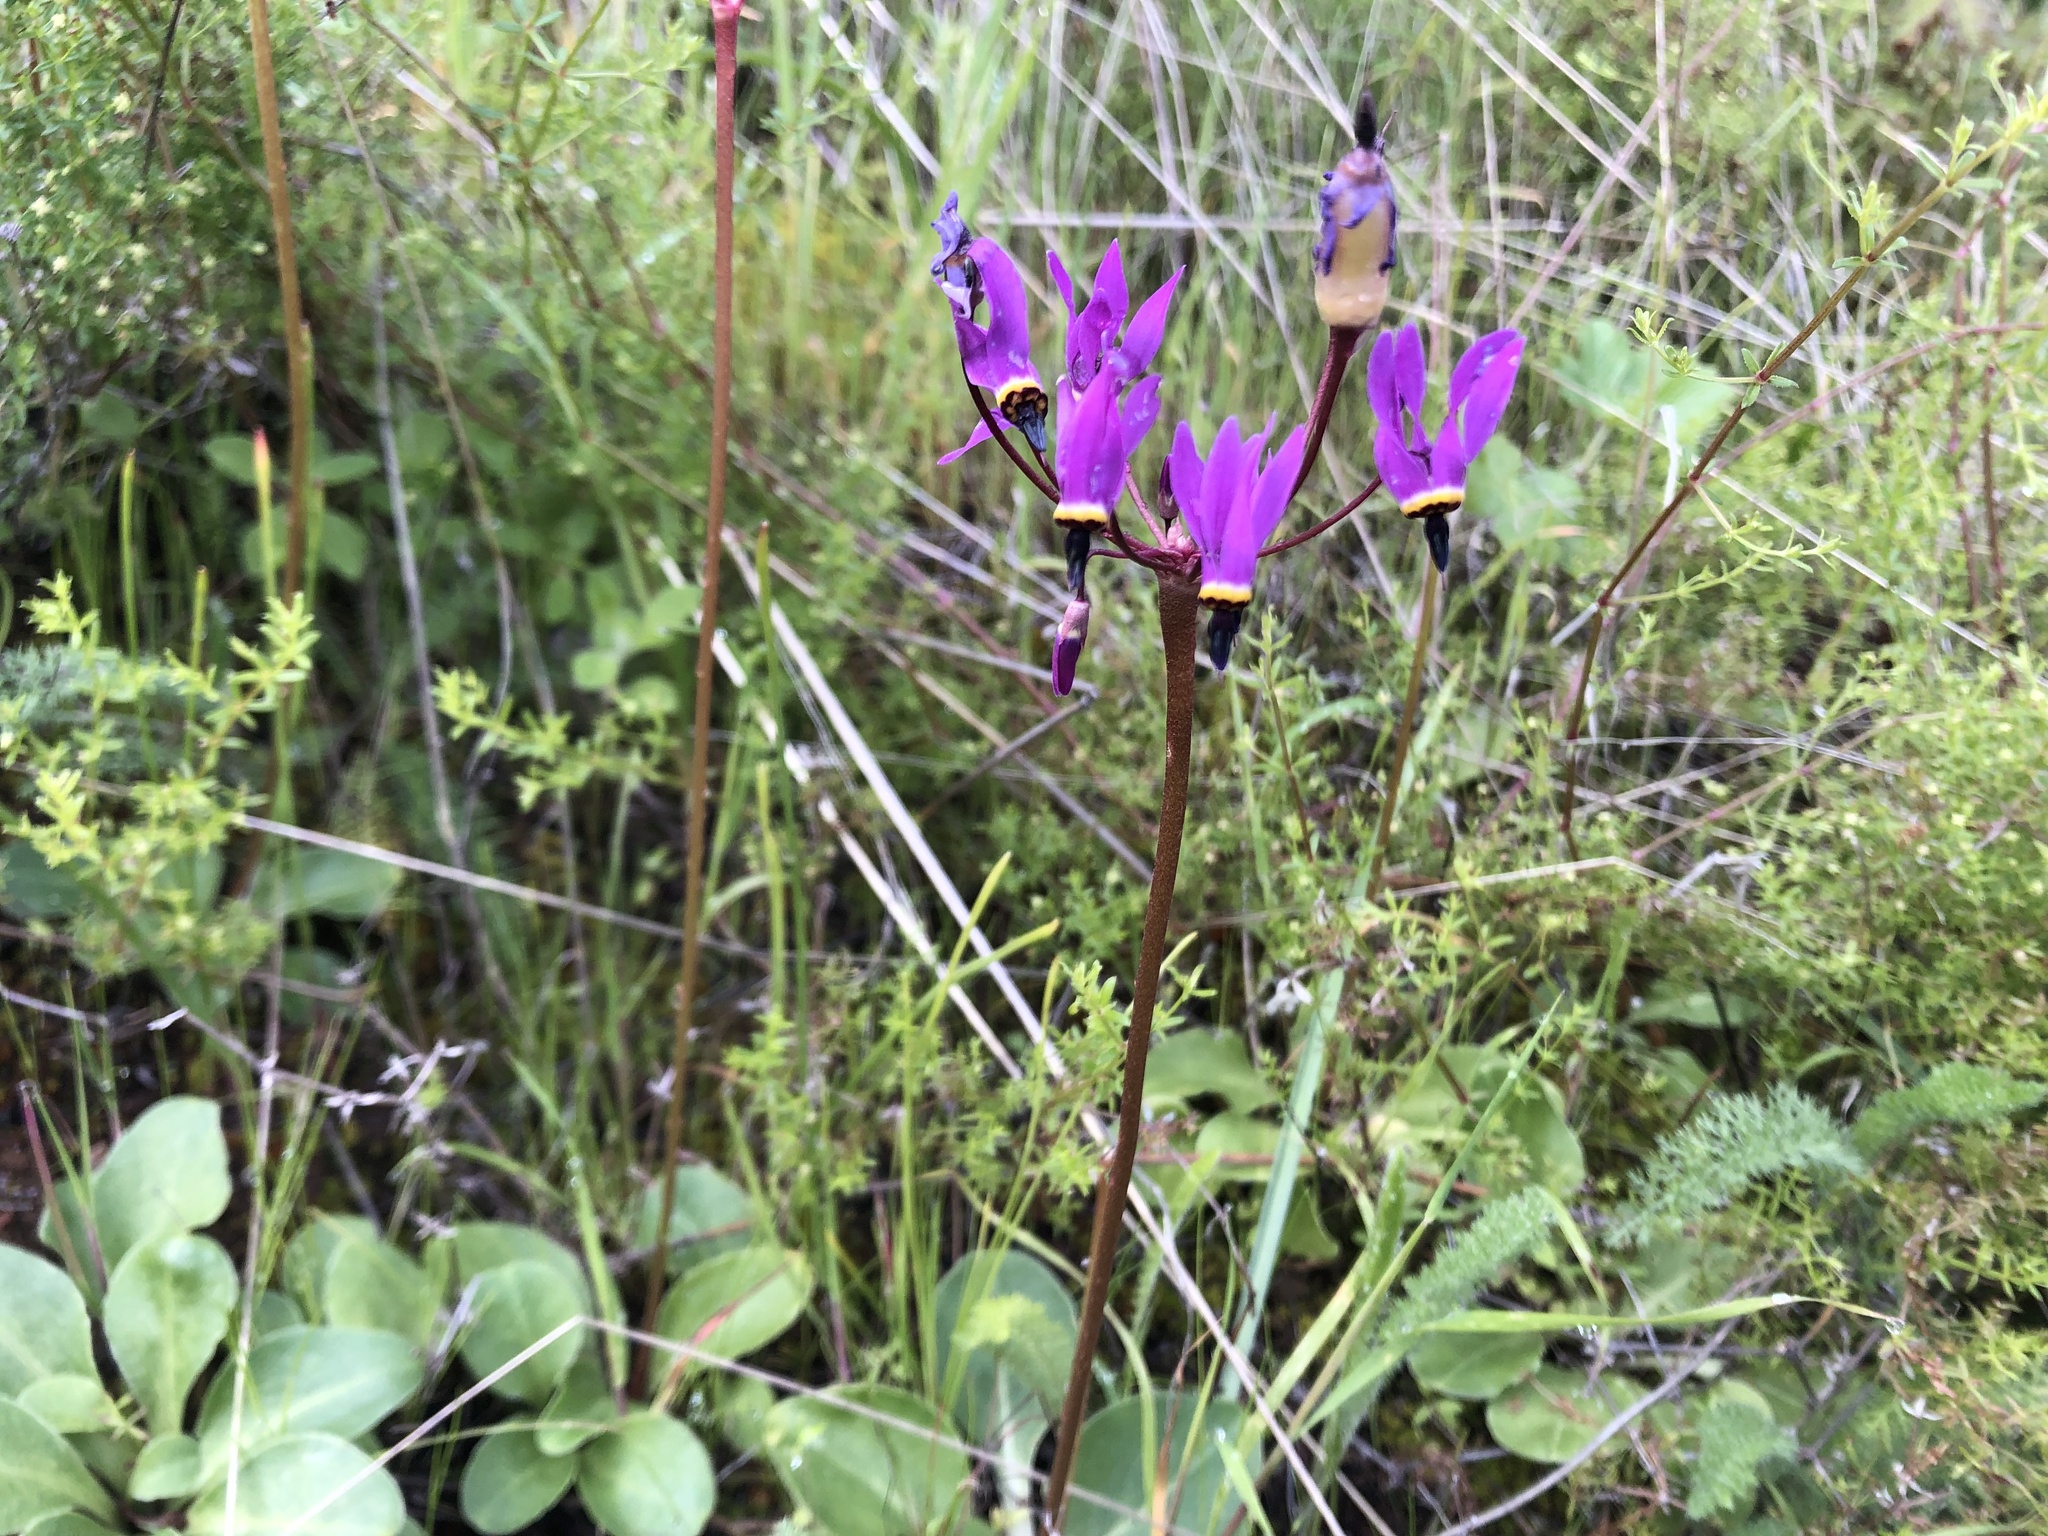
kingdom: Plantae
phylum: Tracheophyta
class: Magnoliopsida
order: Ericales
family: Primulaceae
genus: Dodecatheon
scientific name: Dodecatheon hendersonii
